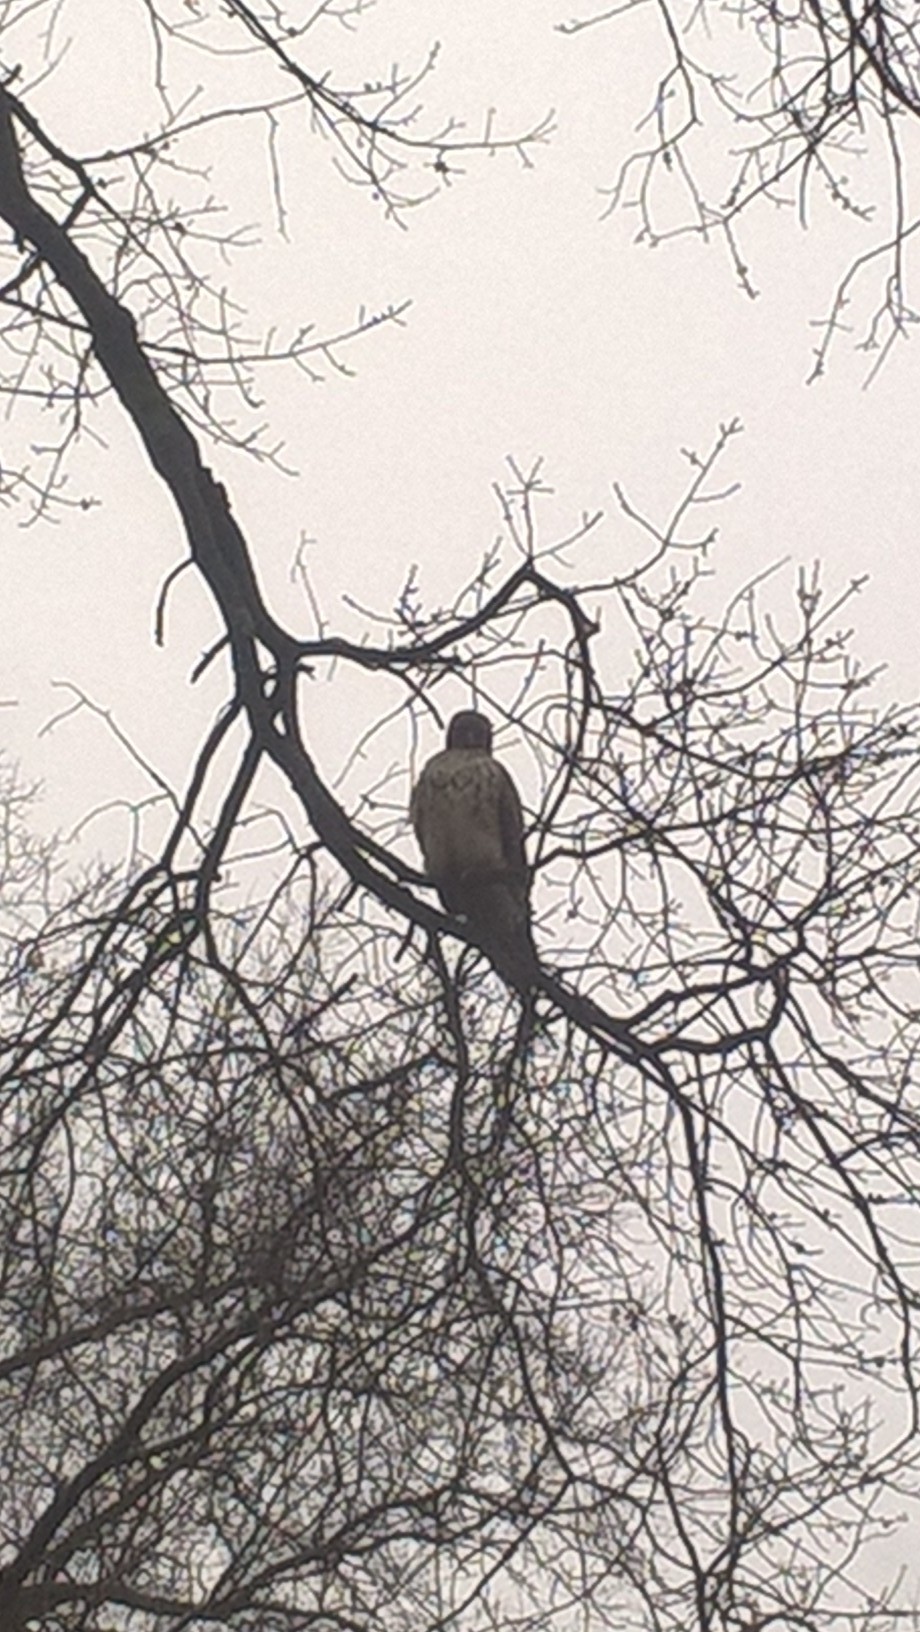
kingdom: Animalia
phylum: Chordata
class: Aves
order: Accipitriformes
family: Accipitridae
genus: Buteo
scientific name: Buteo jamaicensis
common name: Red-tailed hawk
